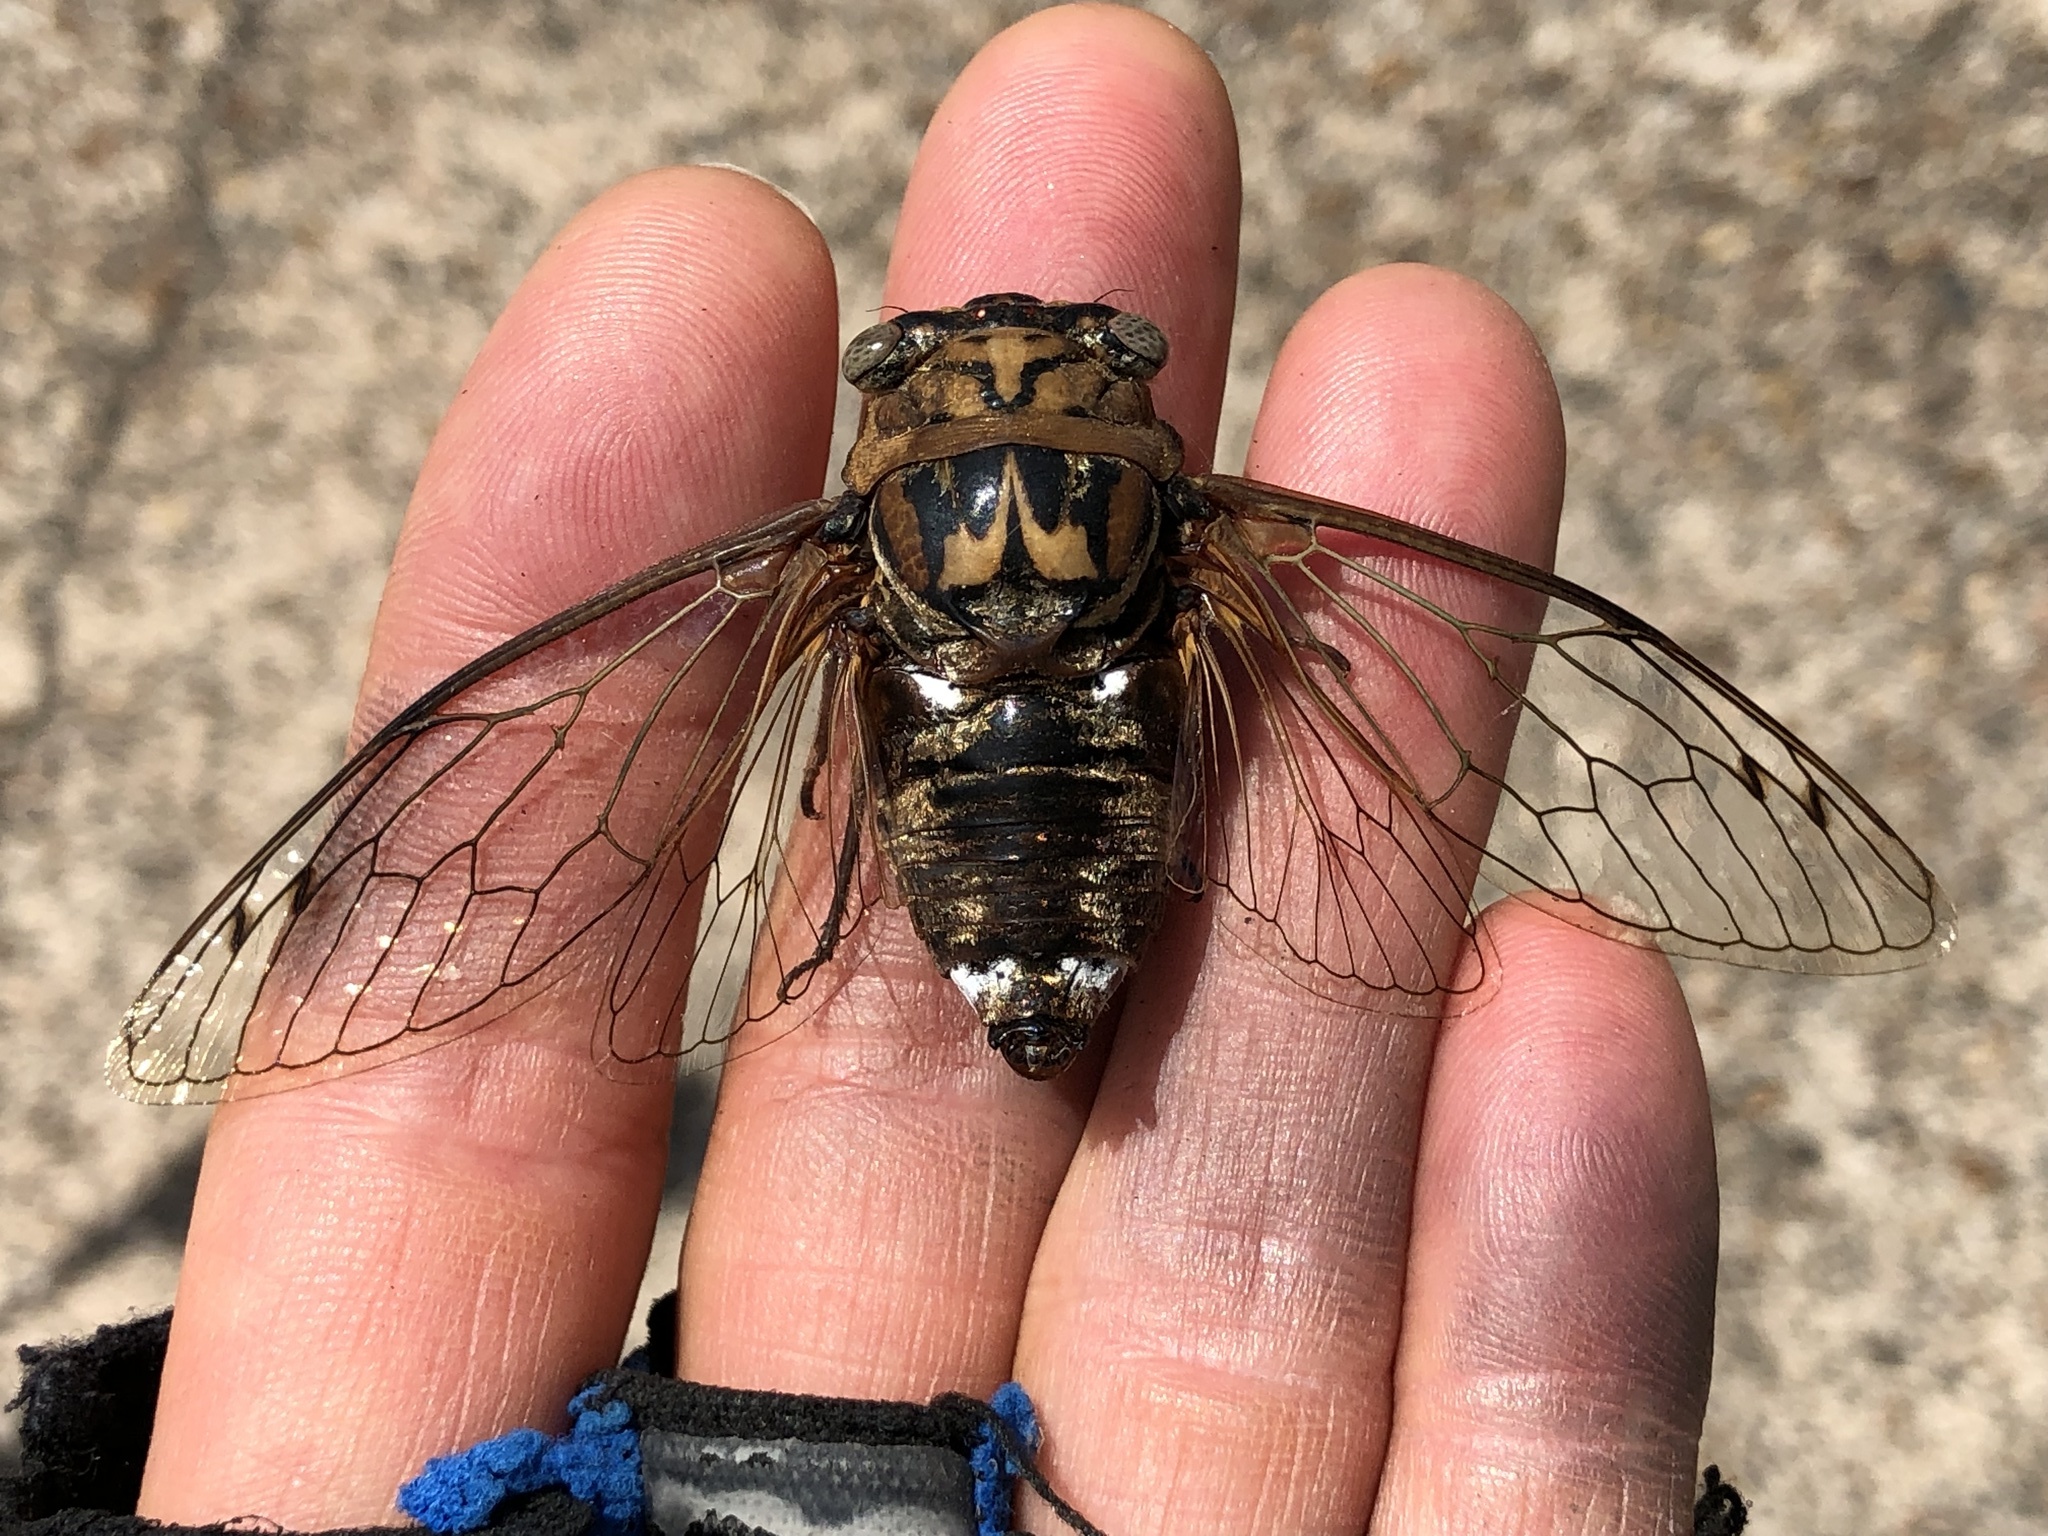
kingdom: Animalia
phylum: Arthropoda
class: Insecta
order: Hemiptera
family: Cicadidae
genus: Megatibicen
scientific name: Megatibicen resh
